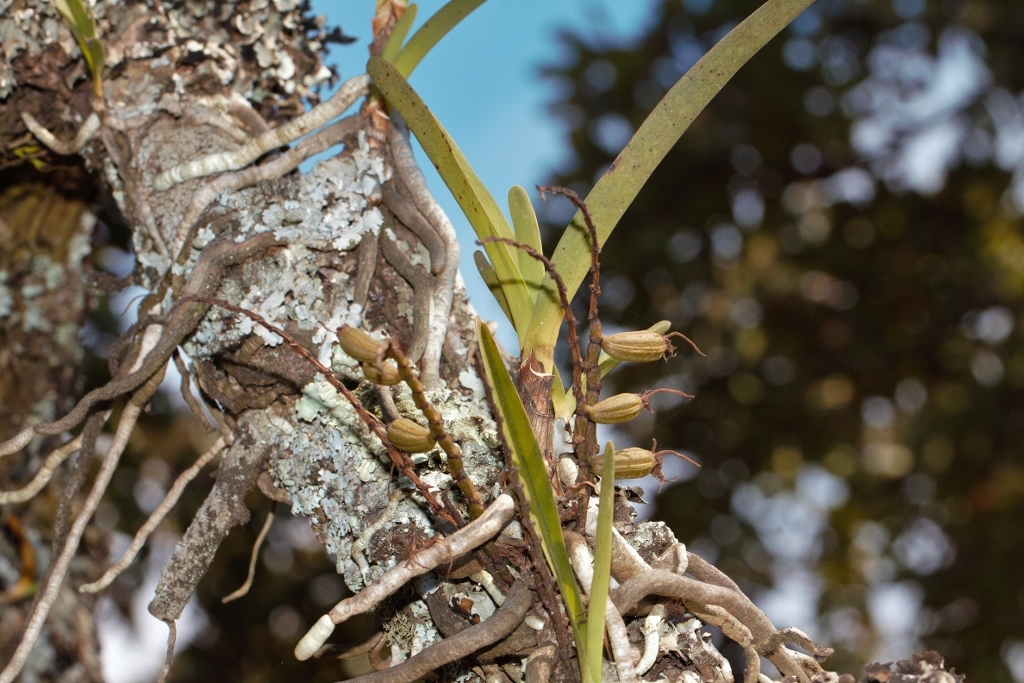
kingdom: Plantae
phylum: Tracheophyta
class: Liliopsida
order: Asparagales
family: Orchidaceae
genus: Cyrtorchis
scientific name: Cyrtorchis praetermissa
